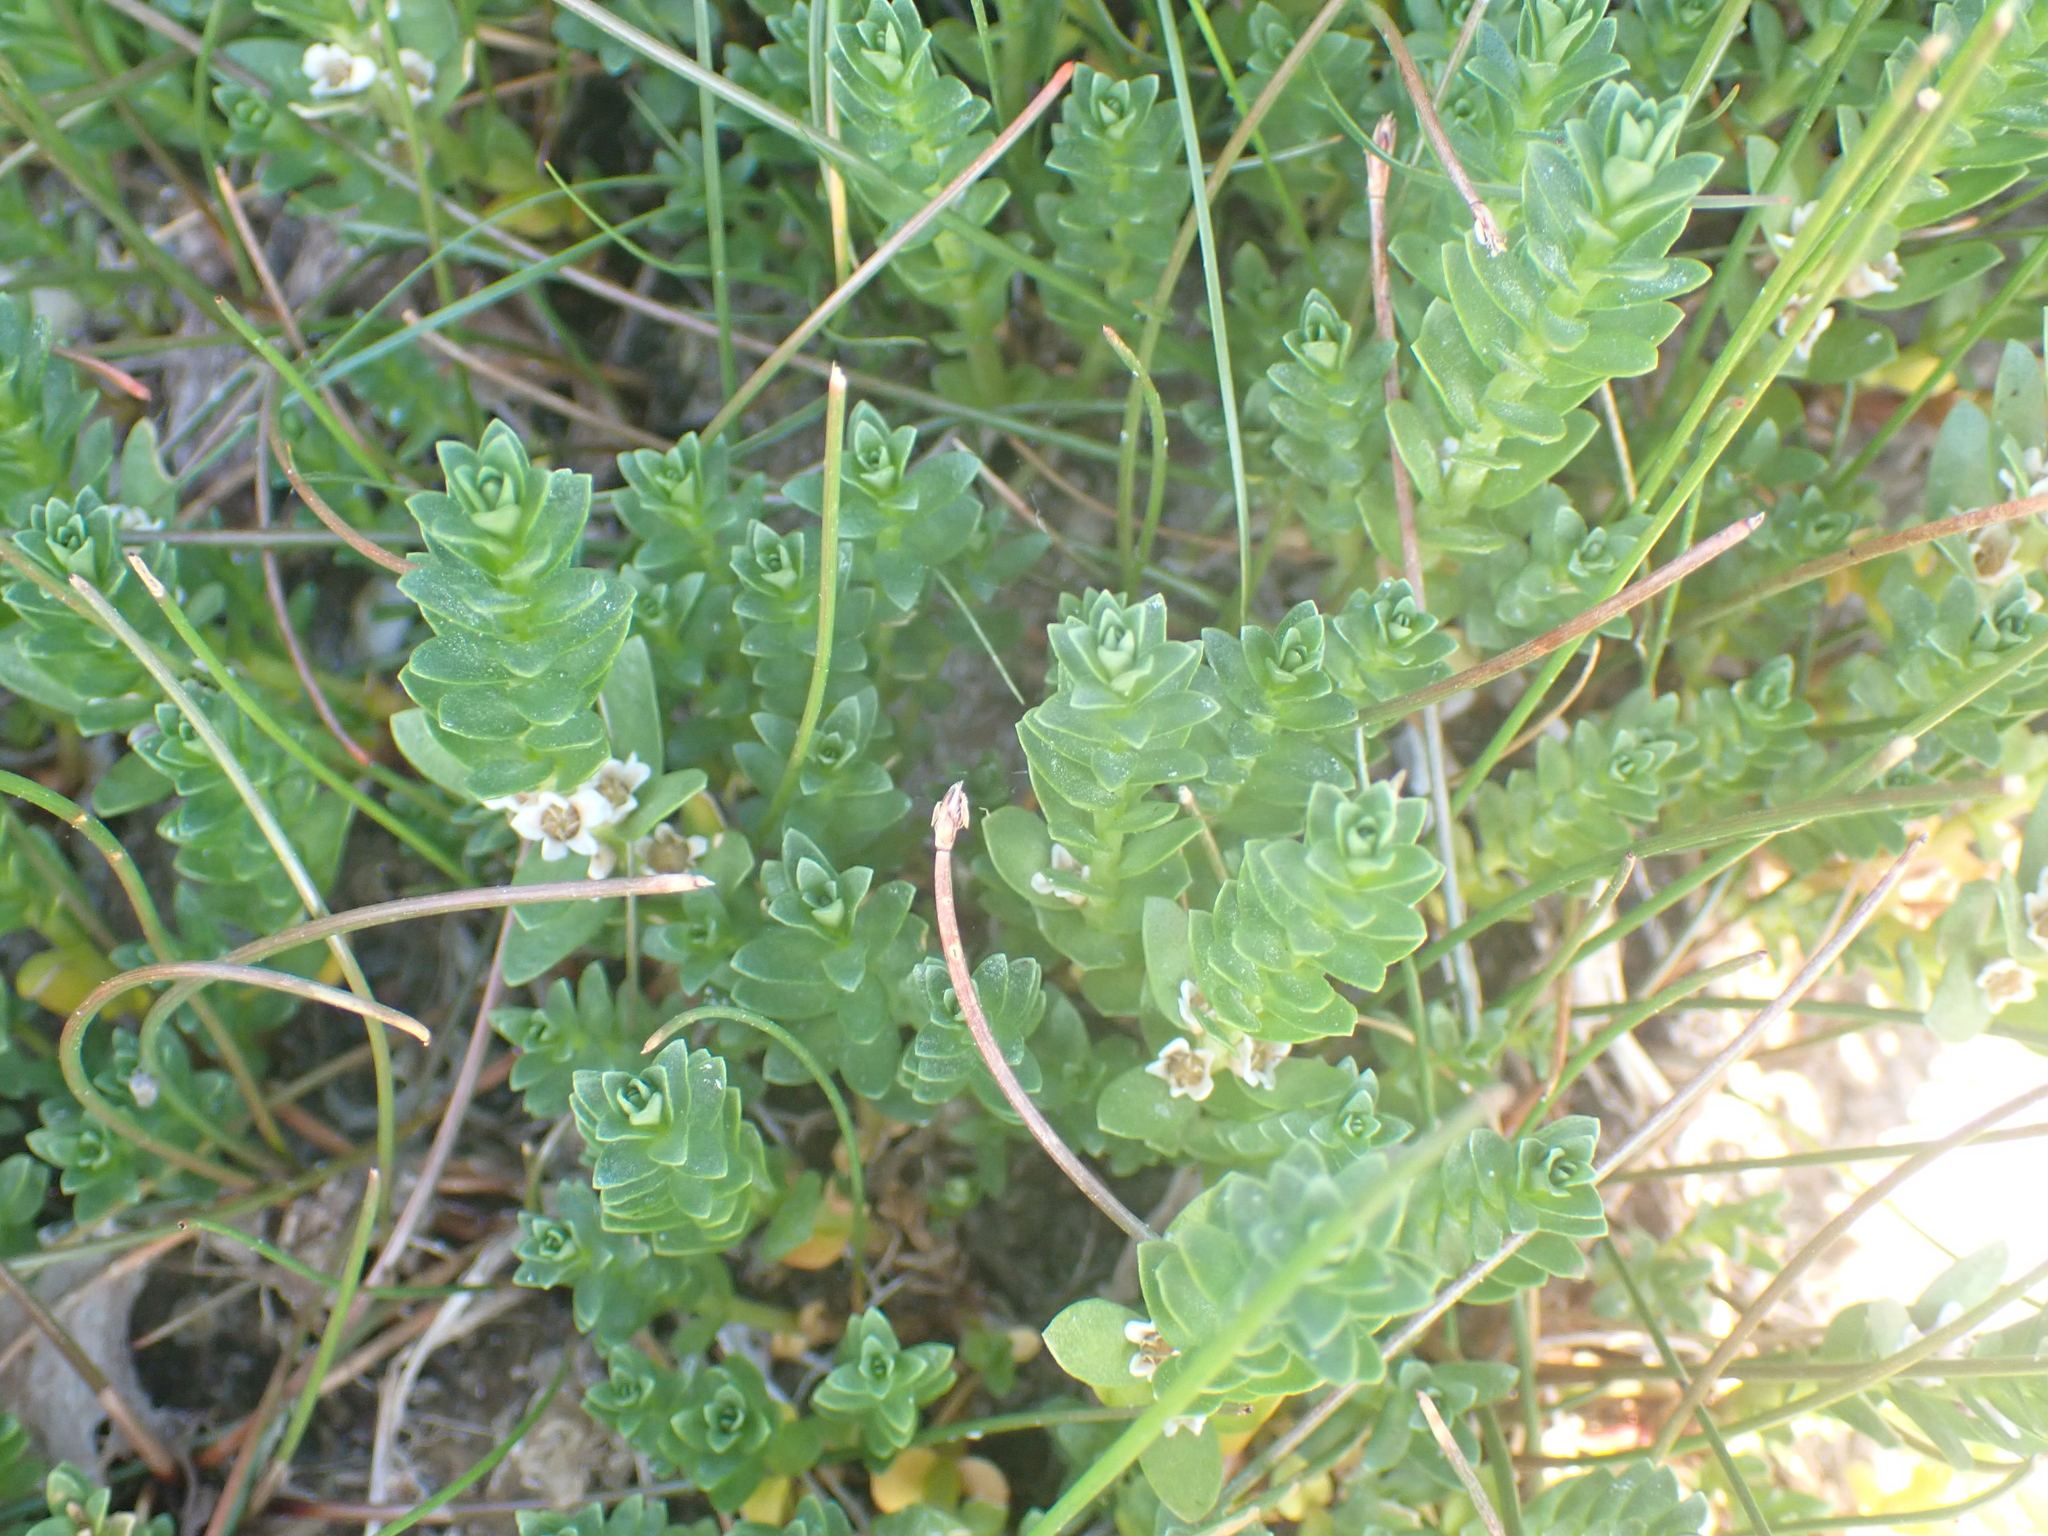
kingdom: Plantae
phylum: Tracheophyta
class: Magnoliopsida
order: Ericales
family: Primulaceae
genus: Lysimachia
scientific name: Lysimachia maritima
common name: Sea milkwort
